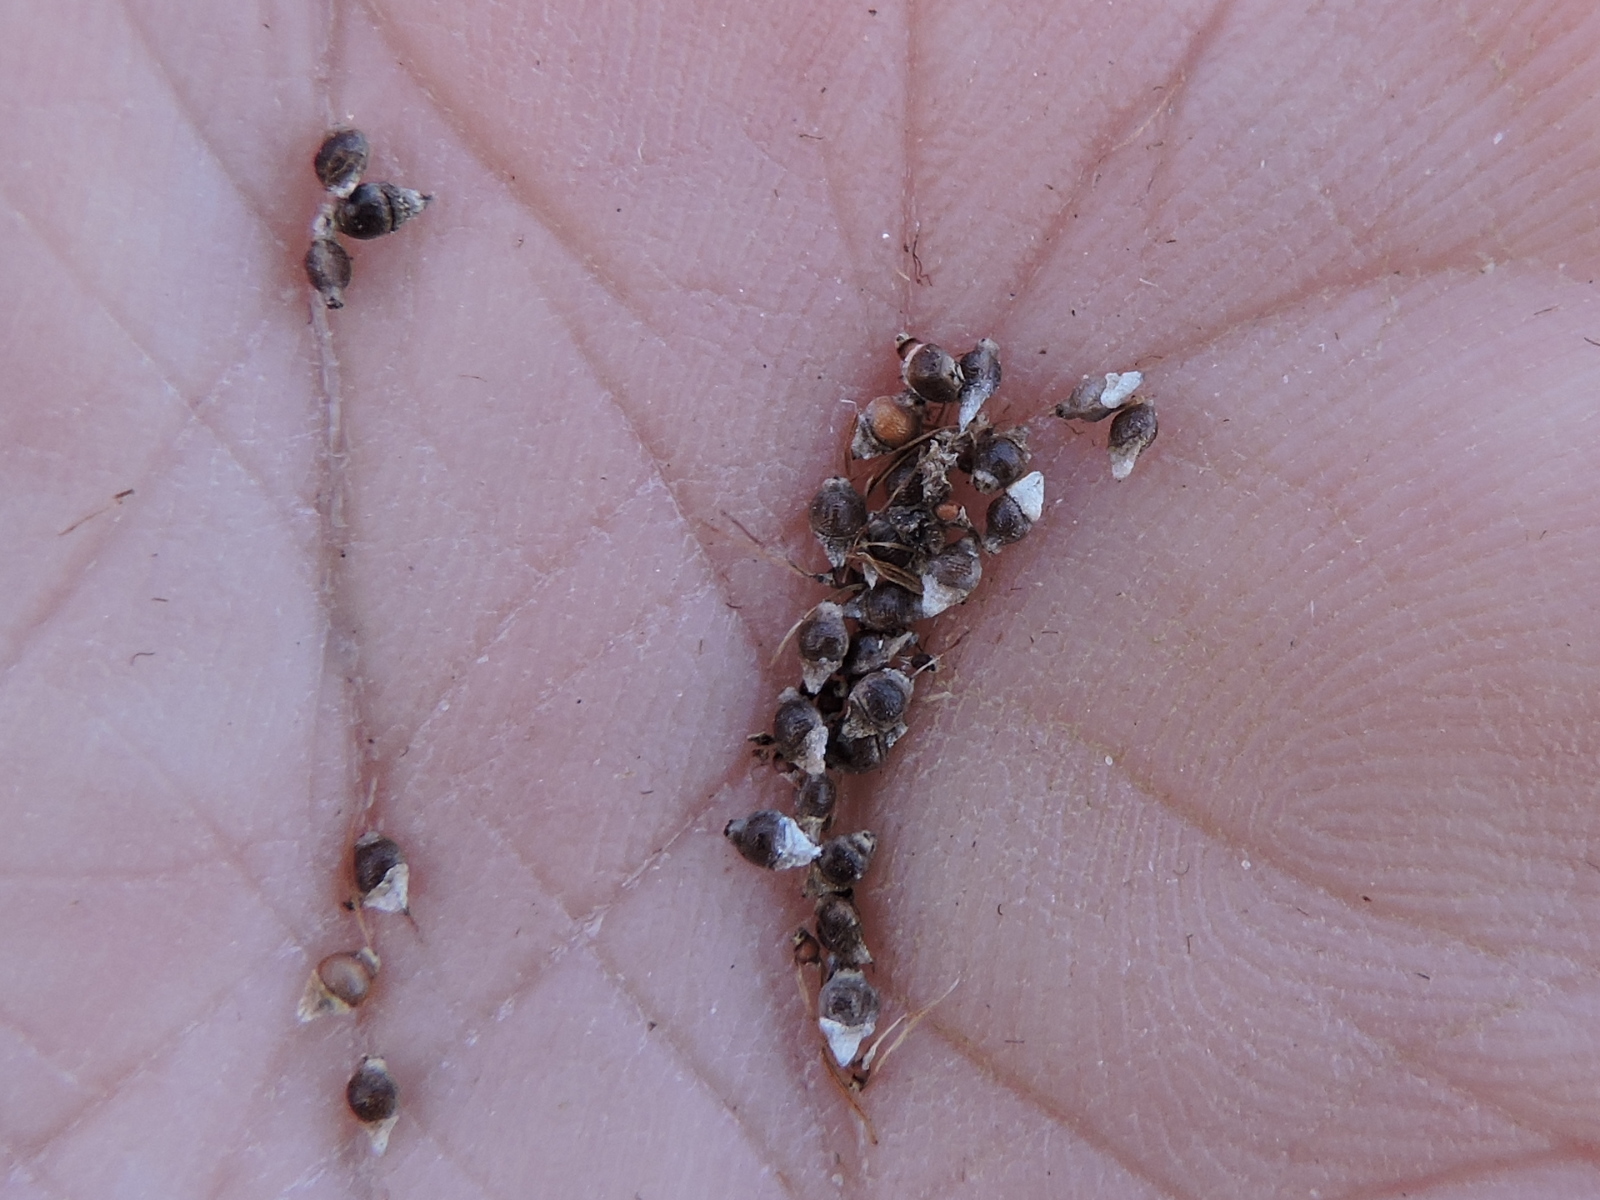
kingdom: Plantae
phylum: Tracheophyta
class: Liliopsida
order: Poales
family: Cyperaceae
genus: Rhynchospora
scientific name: Rhynchospora colorata
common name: Star sedge
